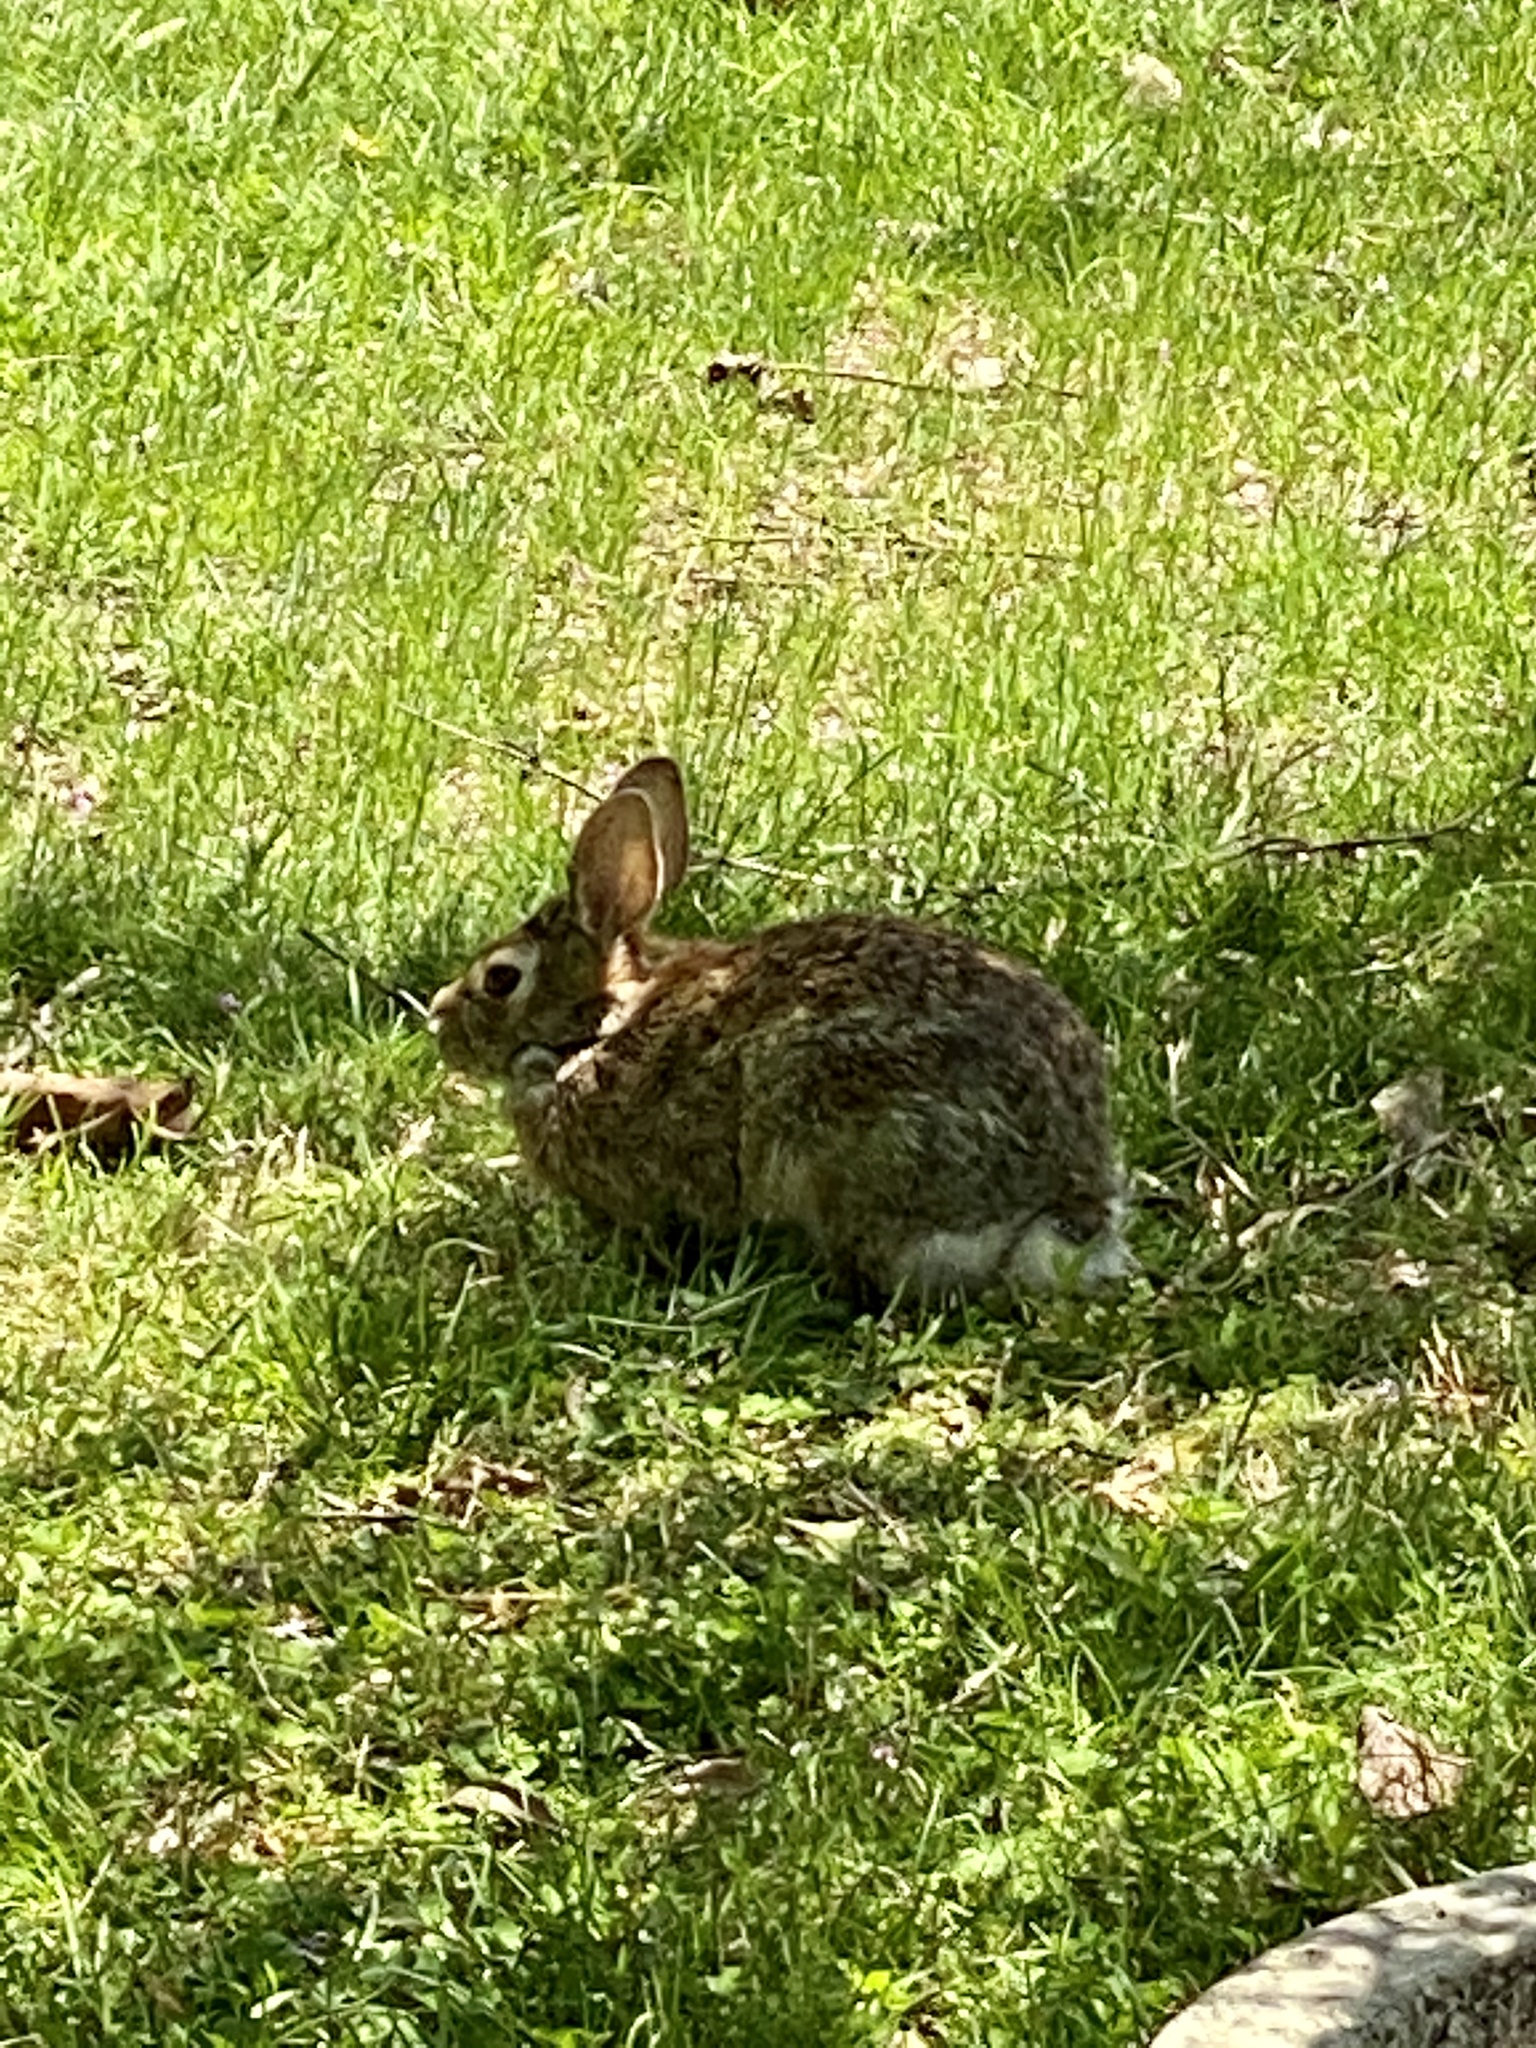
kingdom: Animalia
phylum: Chordata
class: Mammalia
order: Lagomorpha
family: Leporidae
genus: Sylvilagus
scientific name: Sylvilagus floridanus
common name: Eastern cottontail
